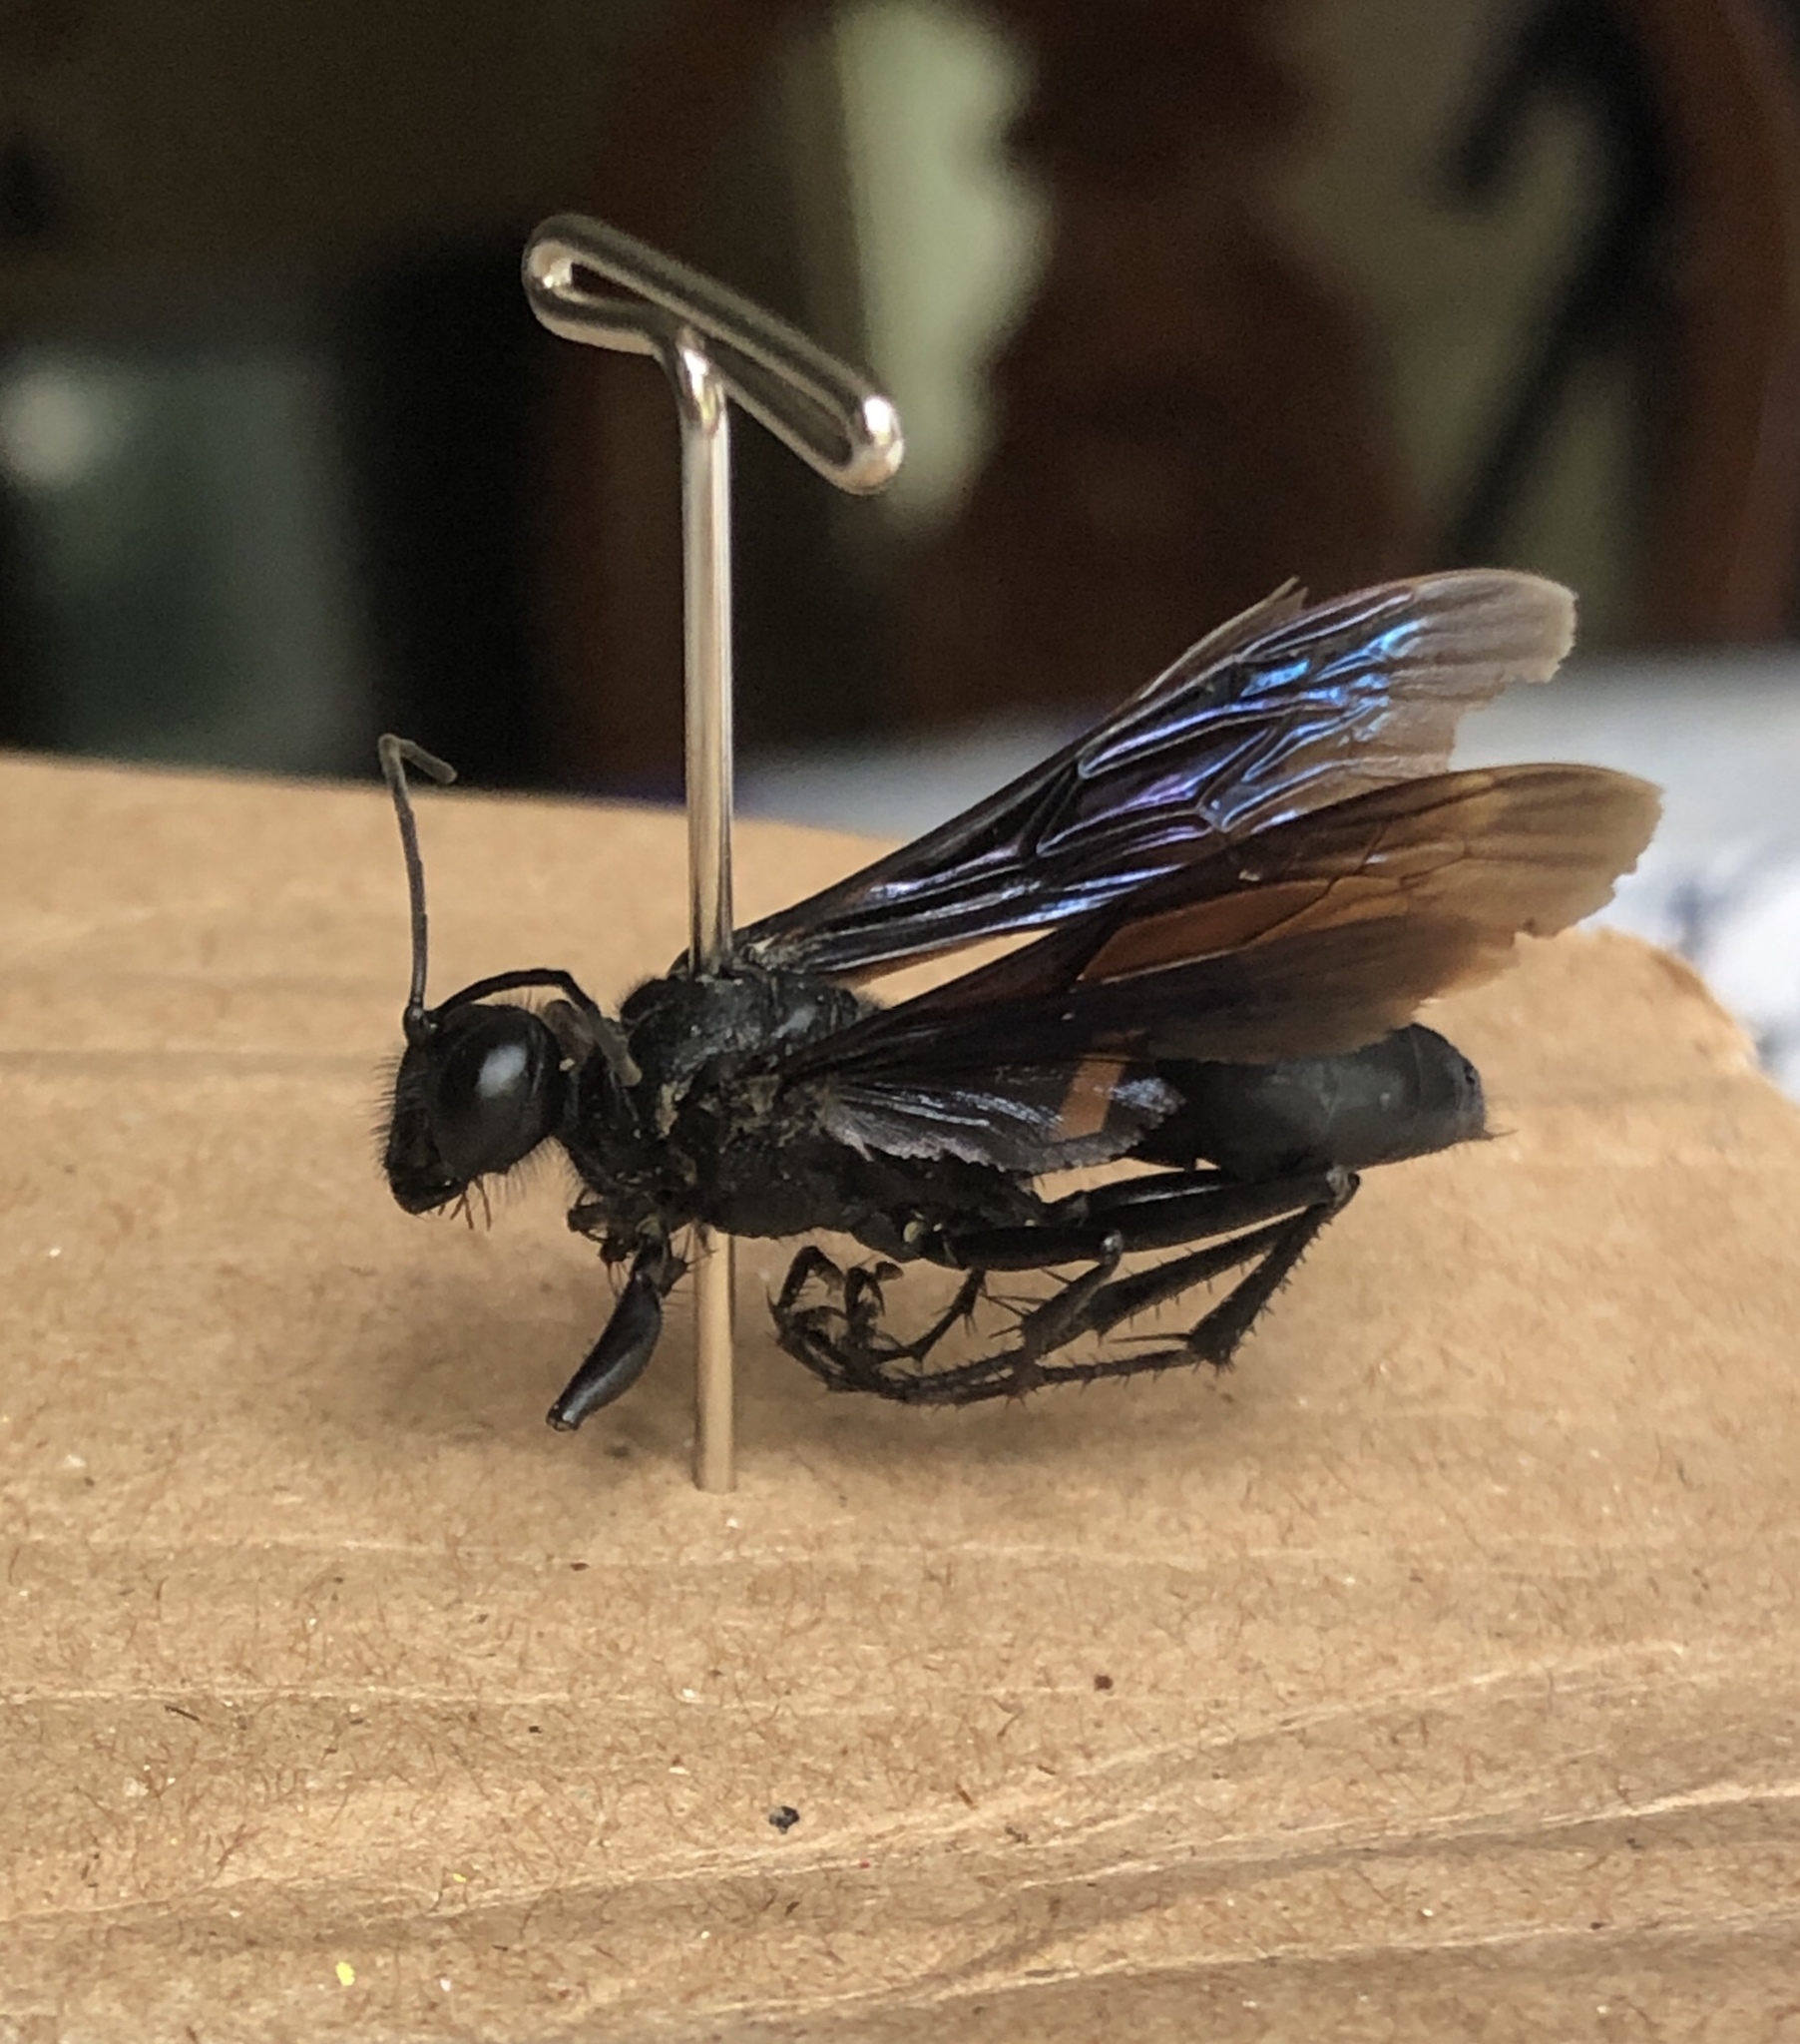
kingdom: Animalia
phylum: Arthropoda
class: Insecta
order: Hymenoptera
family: Sphecidae
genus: Sphex
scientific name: Sphex pensylvanicus
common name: Great black digger wasp
